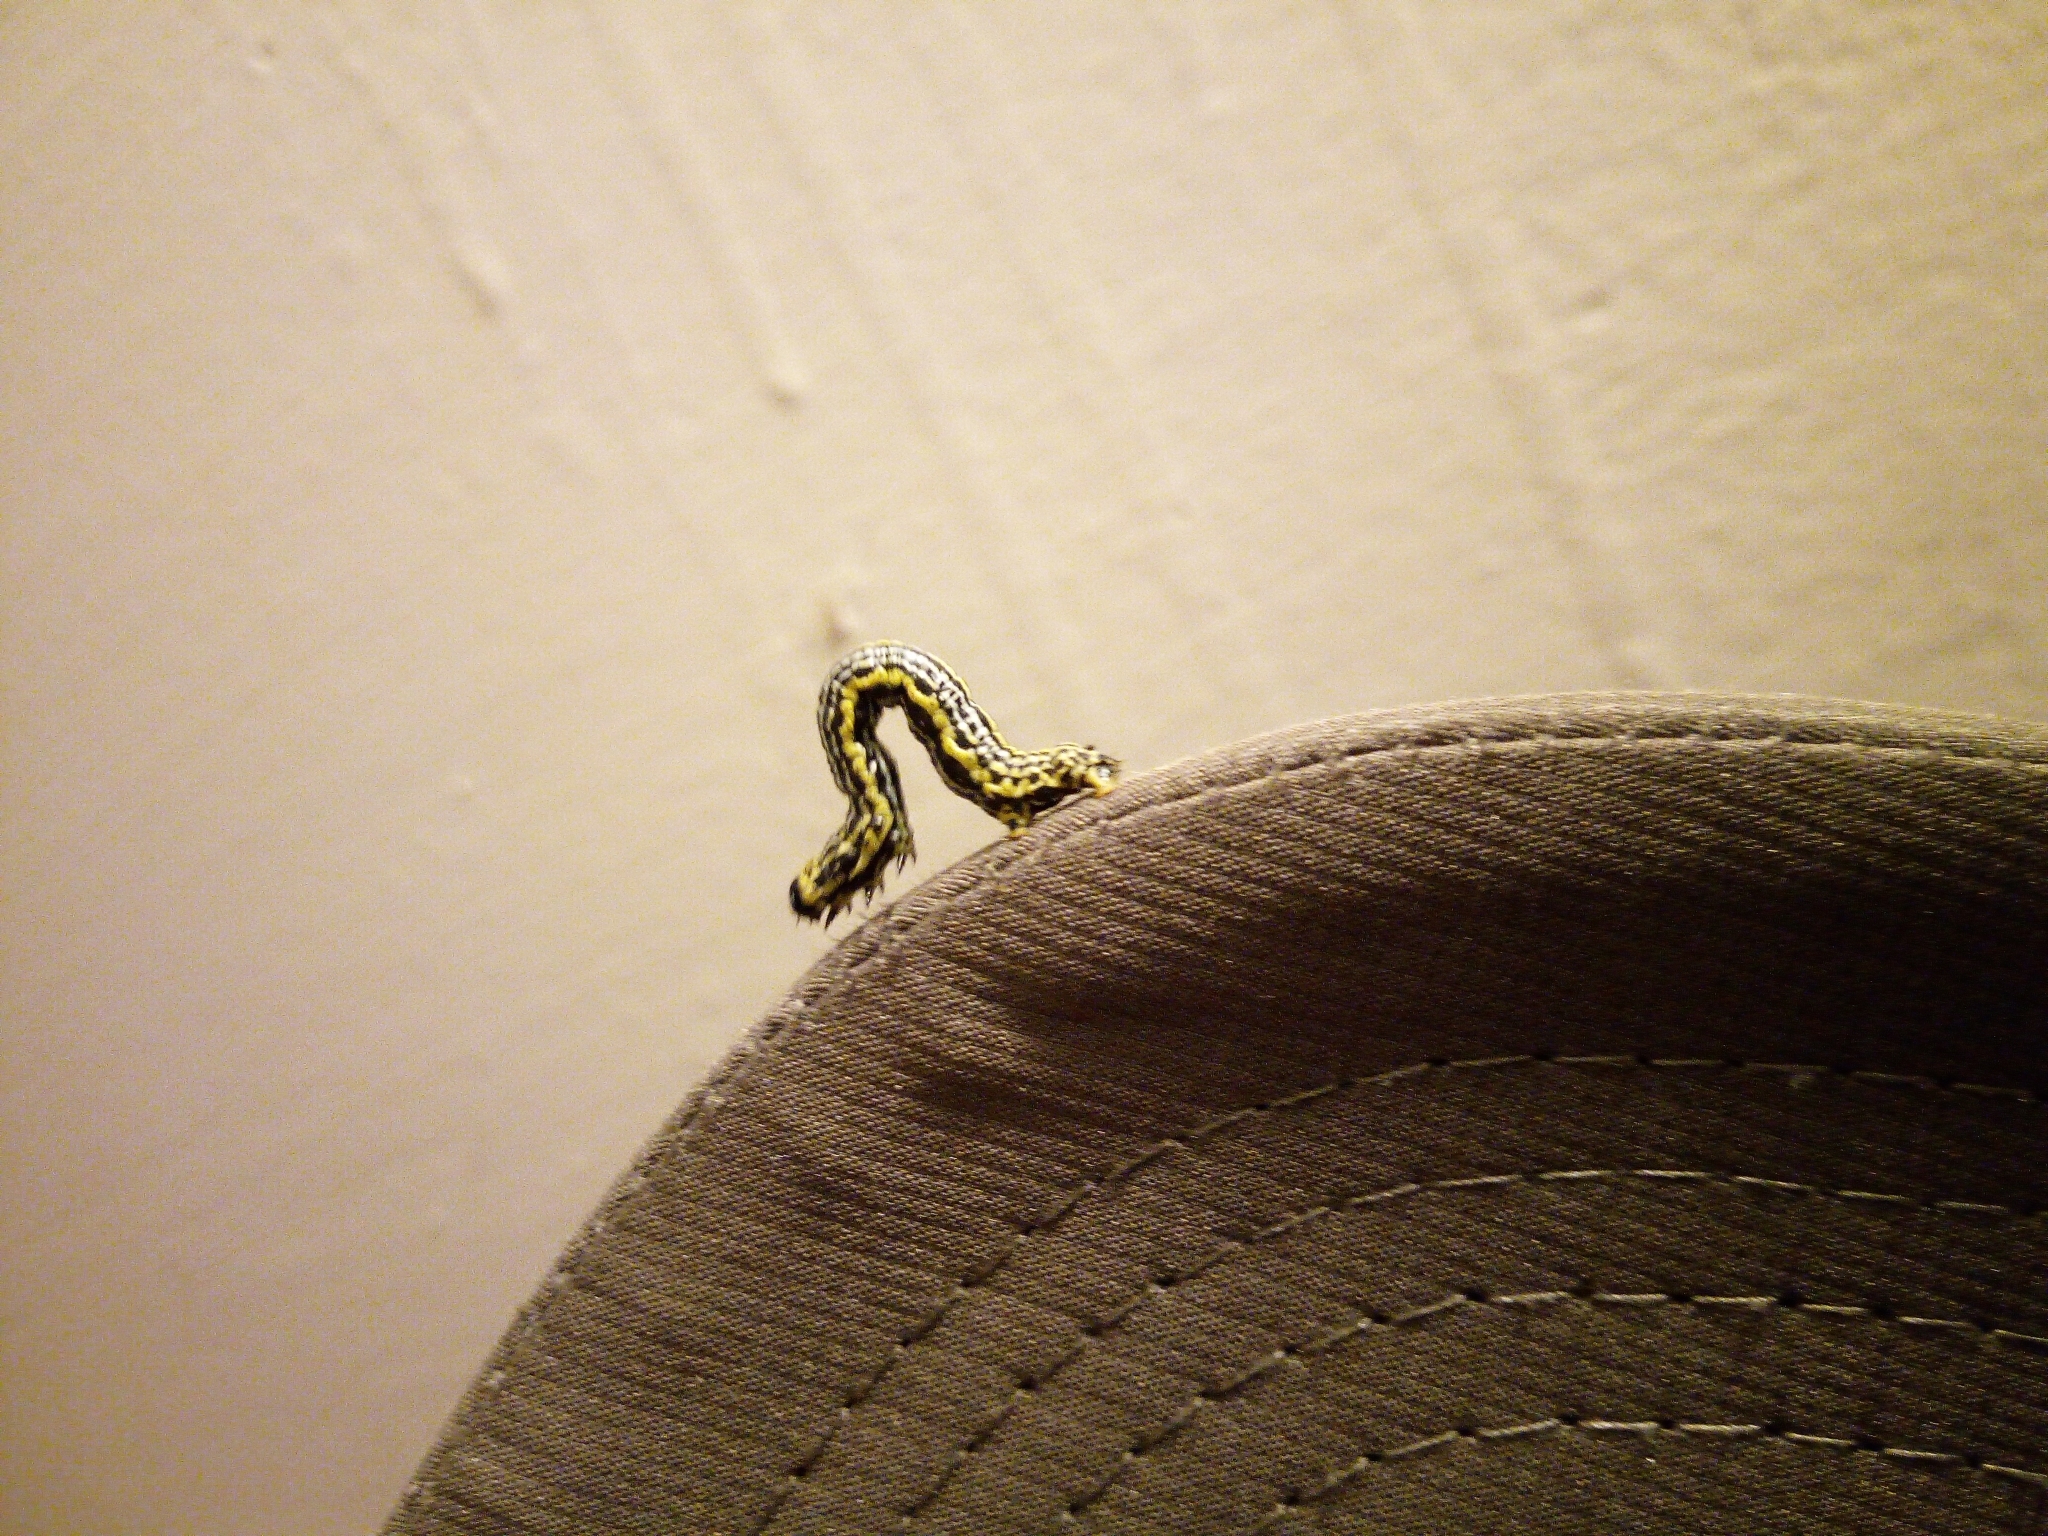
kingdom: Animalia
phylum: Arthropoda
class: Insecta
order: Lepidoptera
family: Geometridae
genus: Abraxas
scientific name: Abraxas sylvata
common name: Clouded magpie
